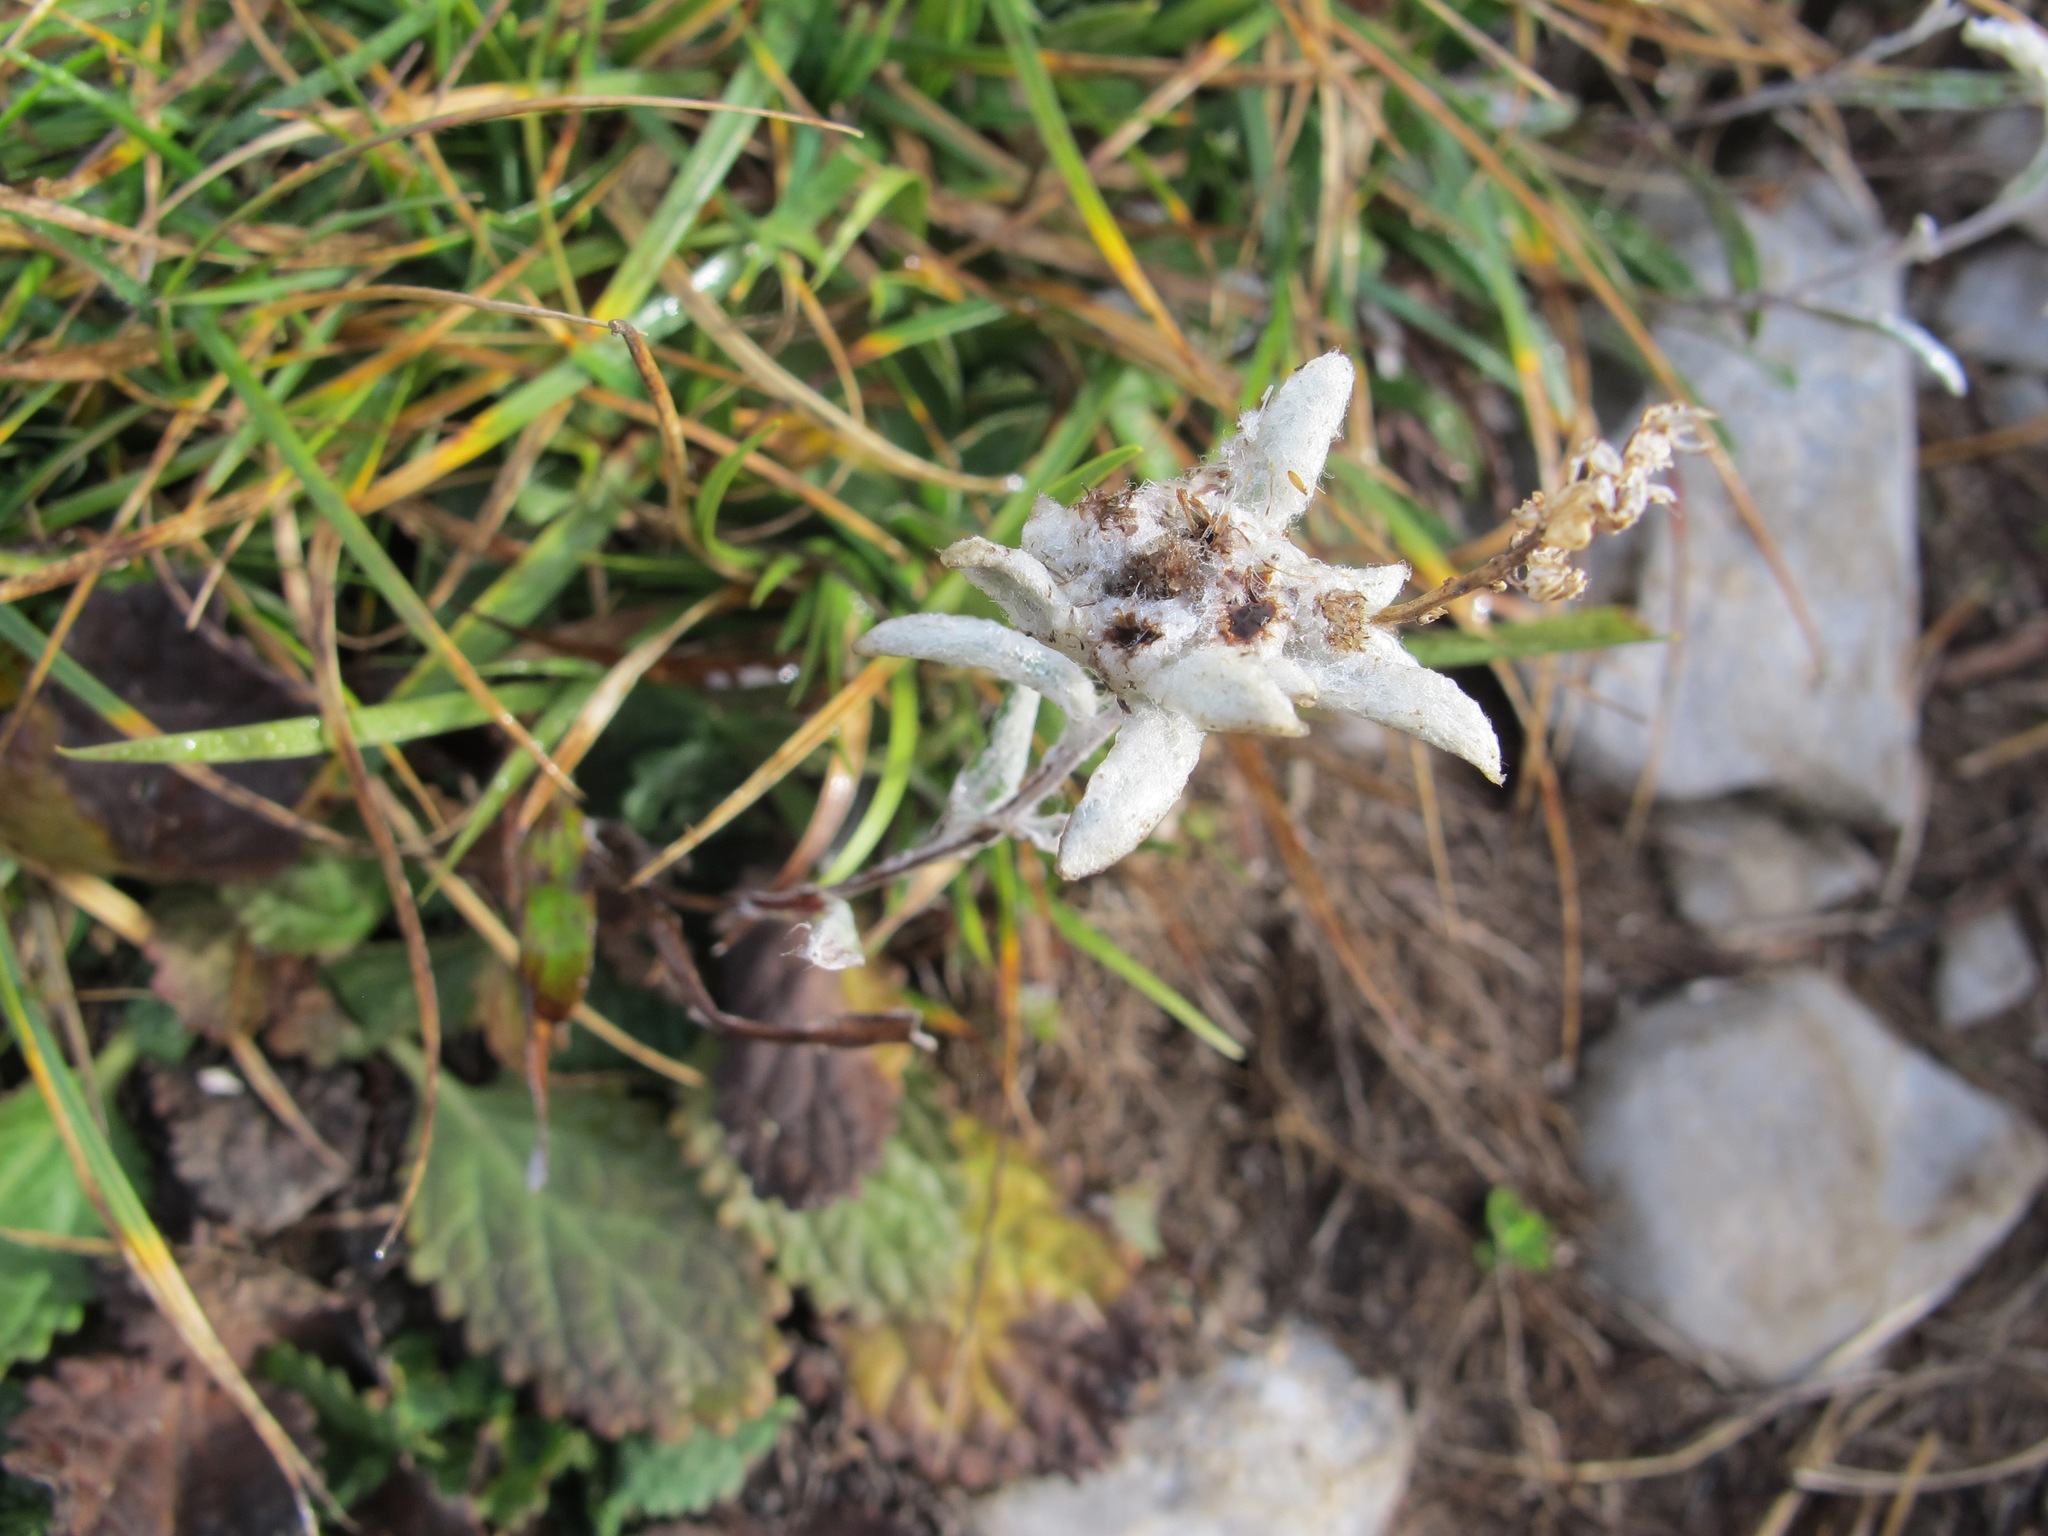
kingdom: Plantae
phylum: Tracheophyta
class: Magnoliopsida
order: Asterales
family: Asteraceae
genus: Leontopodium
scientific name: Leontopodium nivale
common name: Edelweiss
